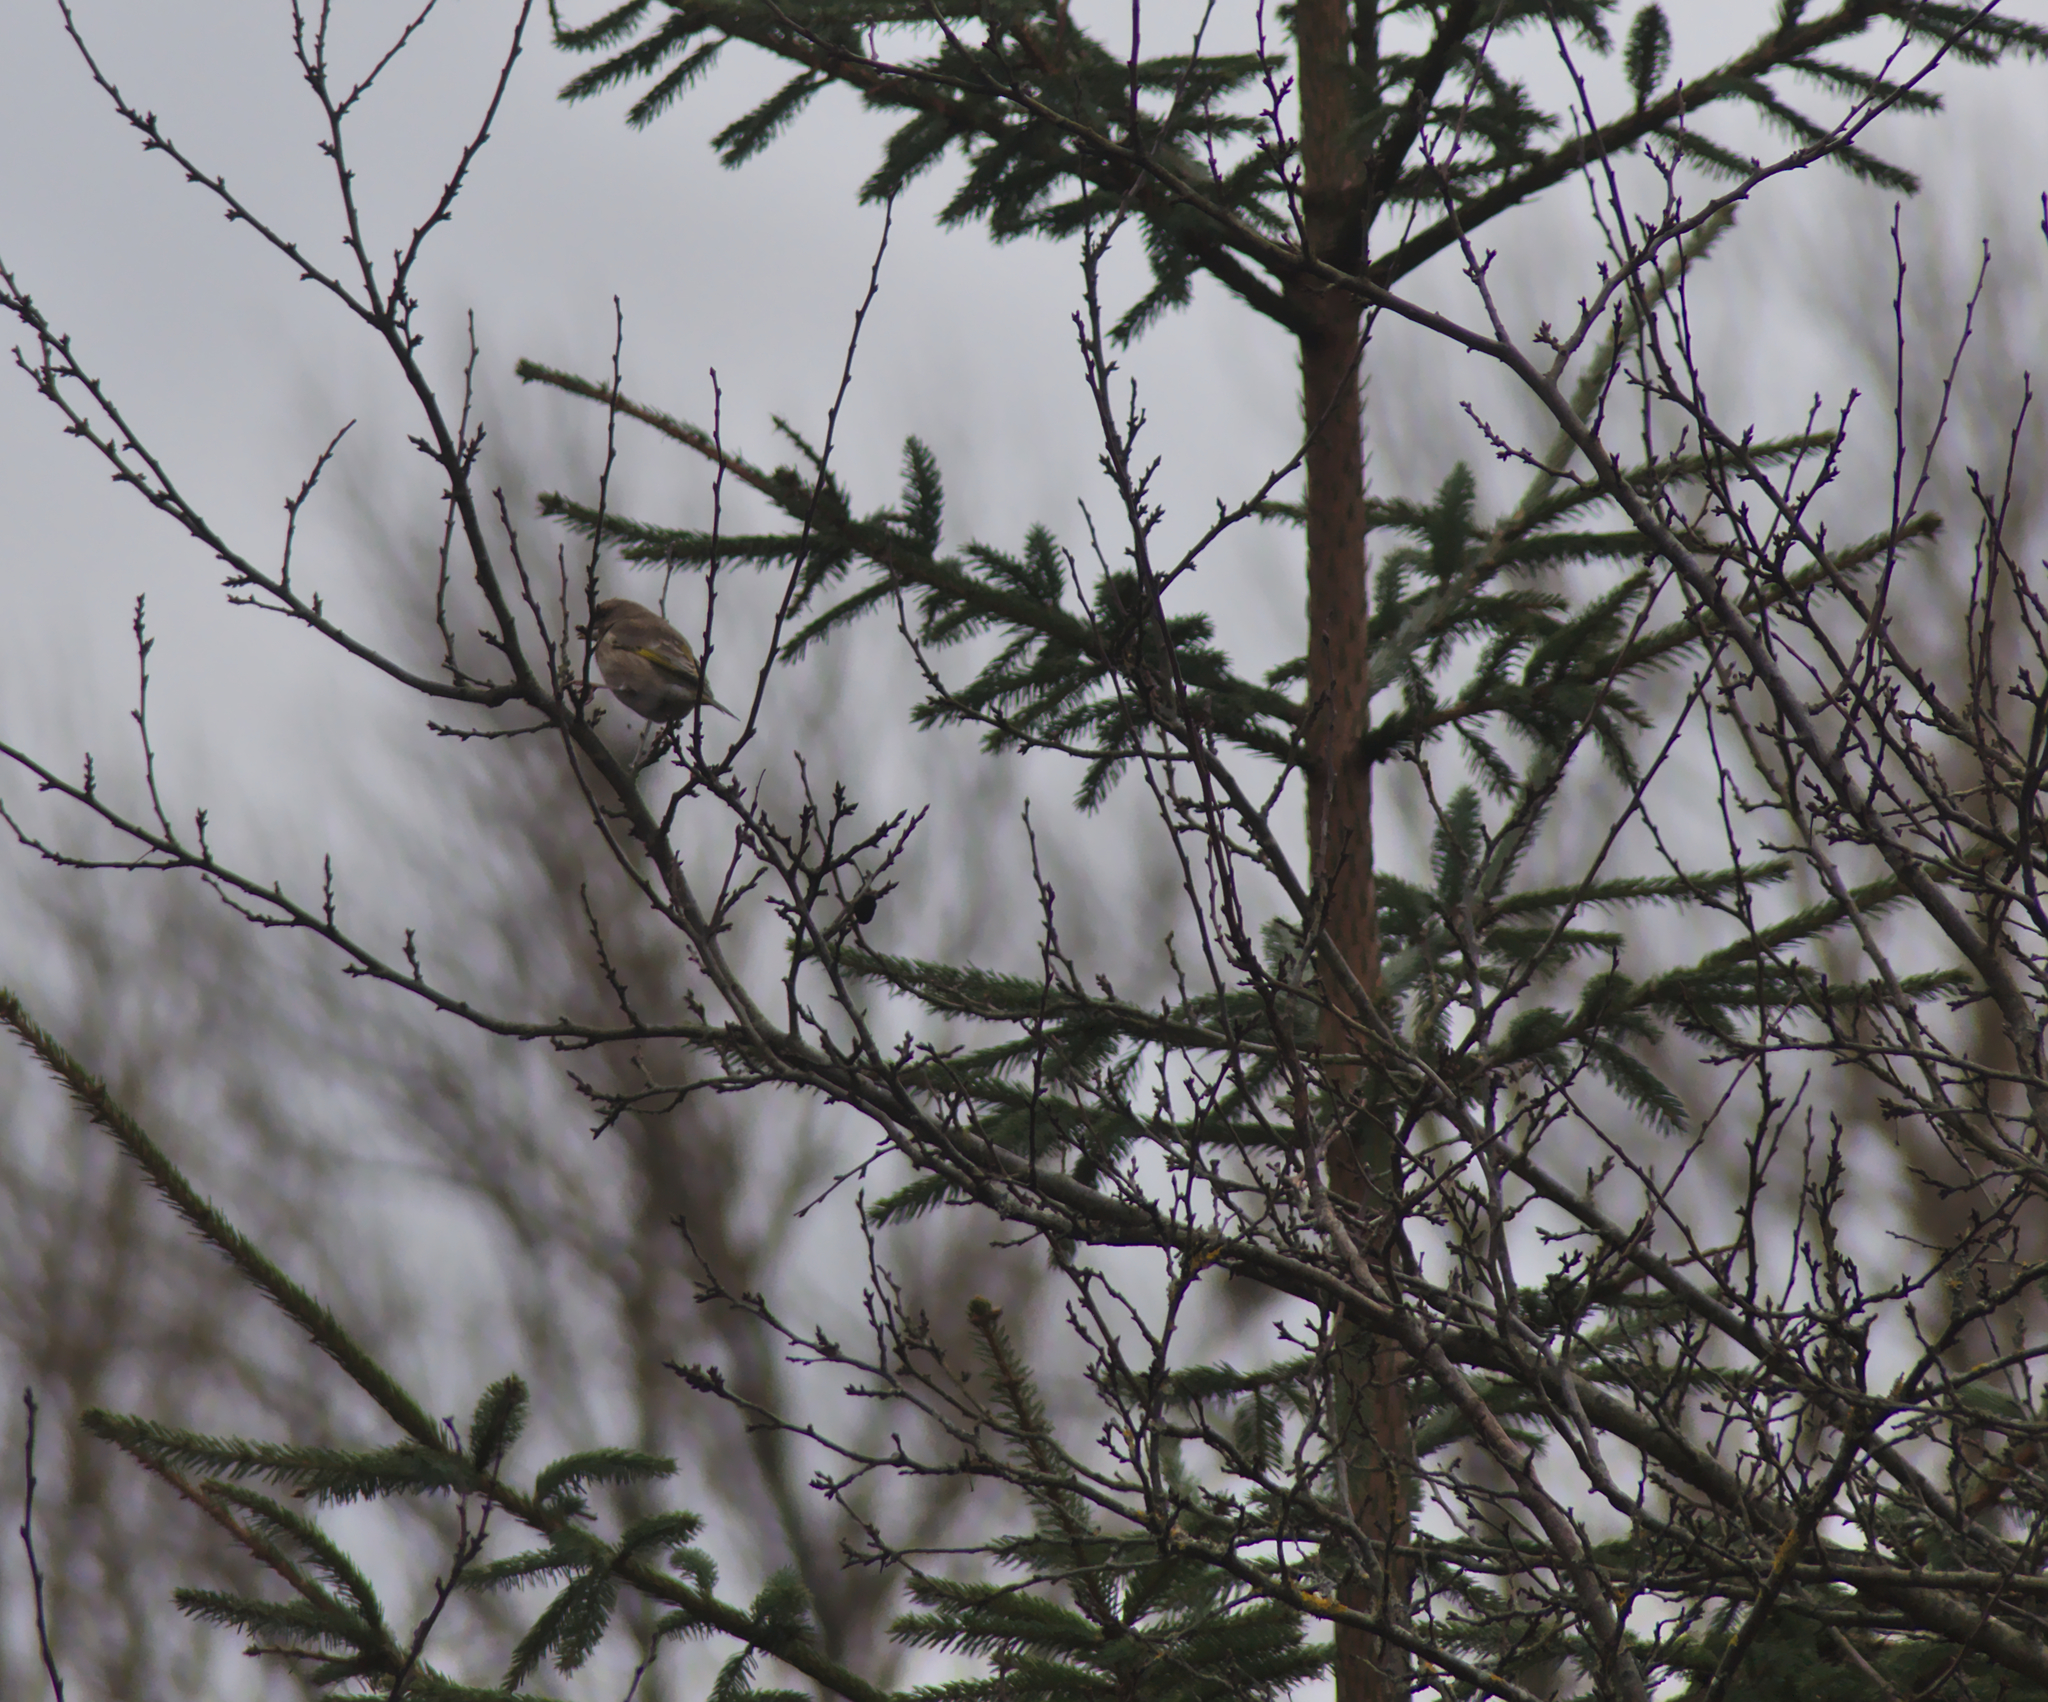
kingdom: Plantae
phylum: Tracheophyta
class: Liliopsida
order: Poales
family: Poaceae
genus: Chloris
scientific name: Chloris chloris
